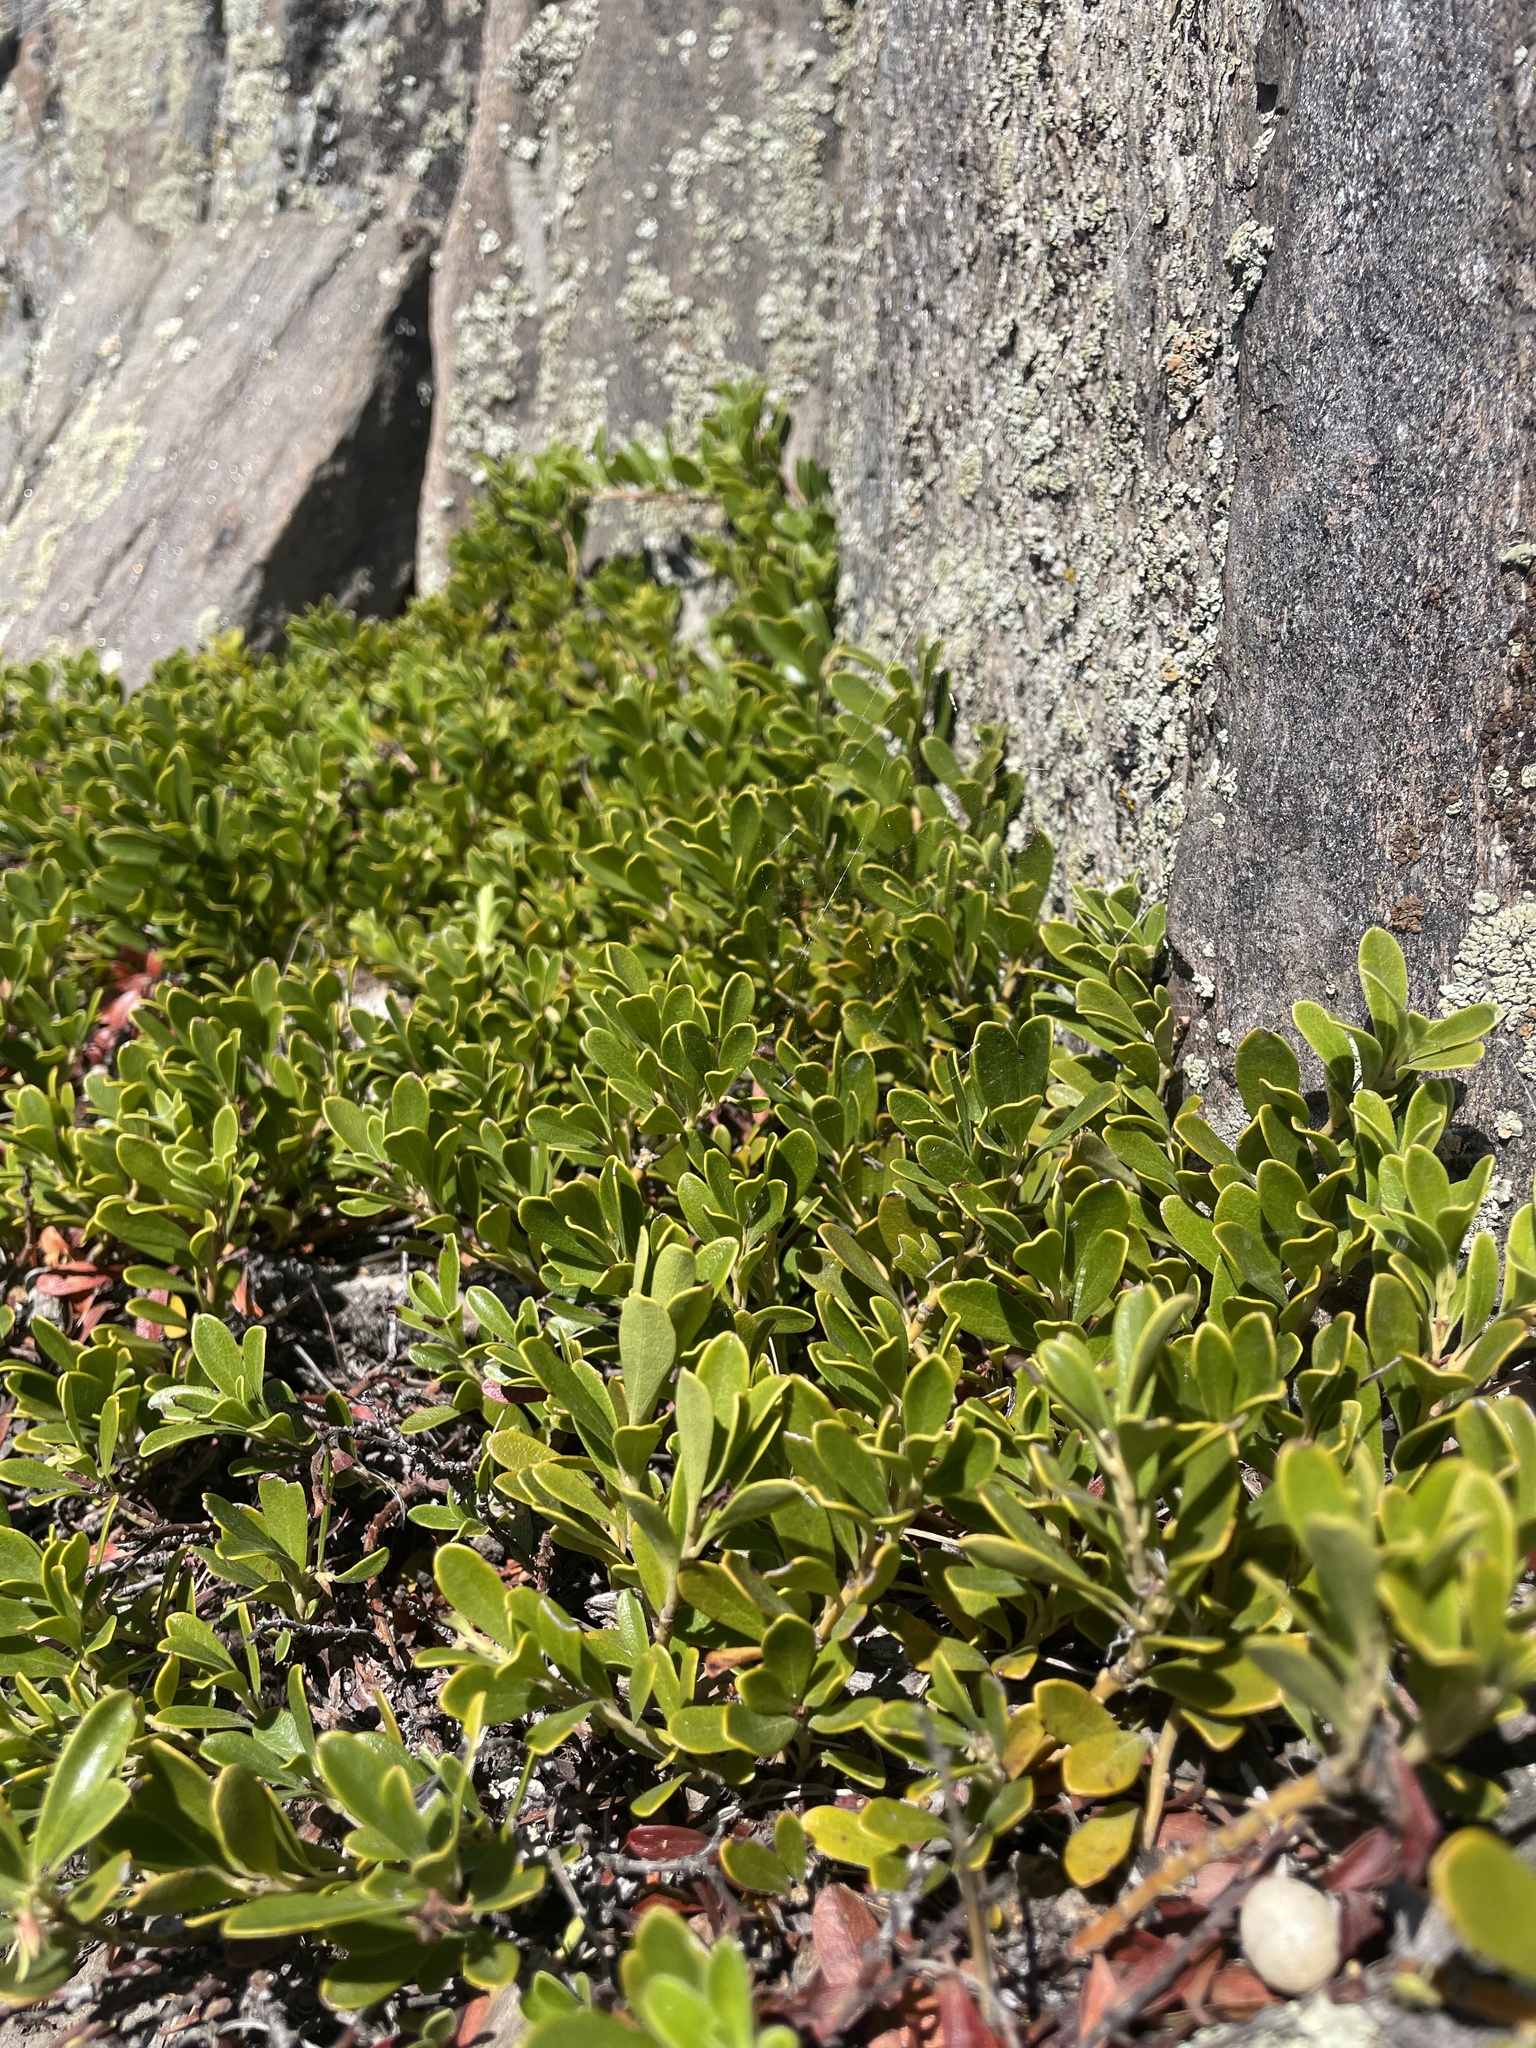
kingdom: Plantae
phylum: Tracheophyta
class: Magnoliopsida
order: Ericales
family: Ericaceae
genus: Arctostaphylos
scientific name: Arctostaphylos uva-ursi
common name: Bearberry
